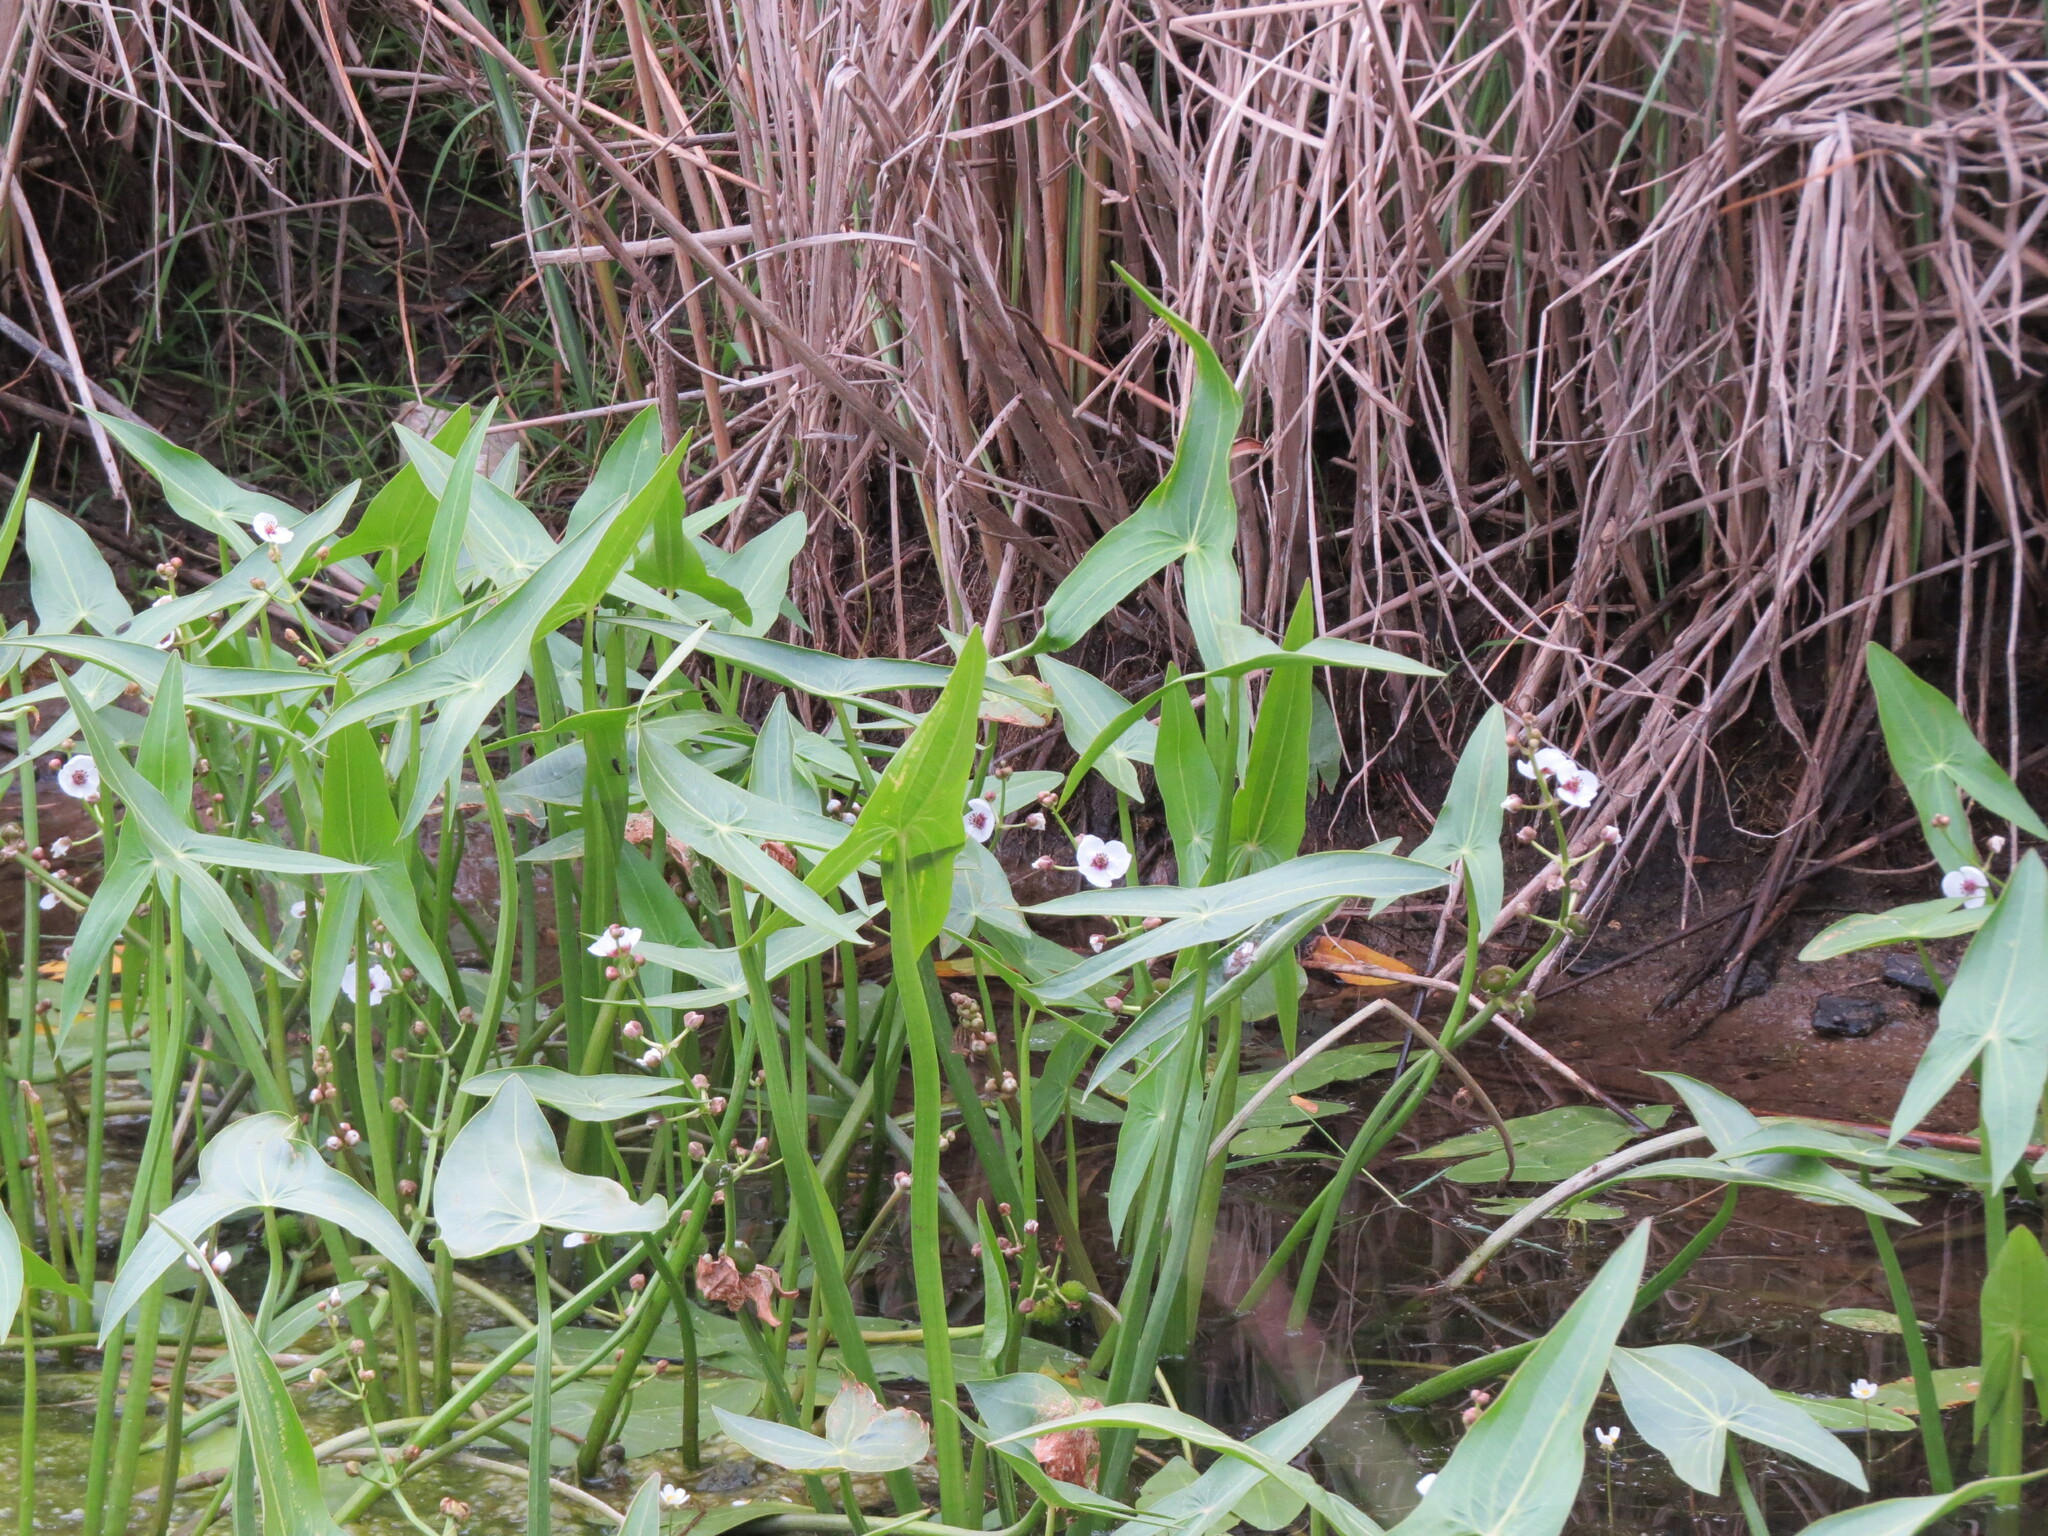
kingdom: Plantae
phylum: Tracheophyta
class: Liliopsida
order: Alismatales
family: Alismataceae
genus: Sagittaria
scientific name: Sagittaria sagittifolia
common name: Arrowhead
